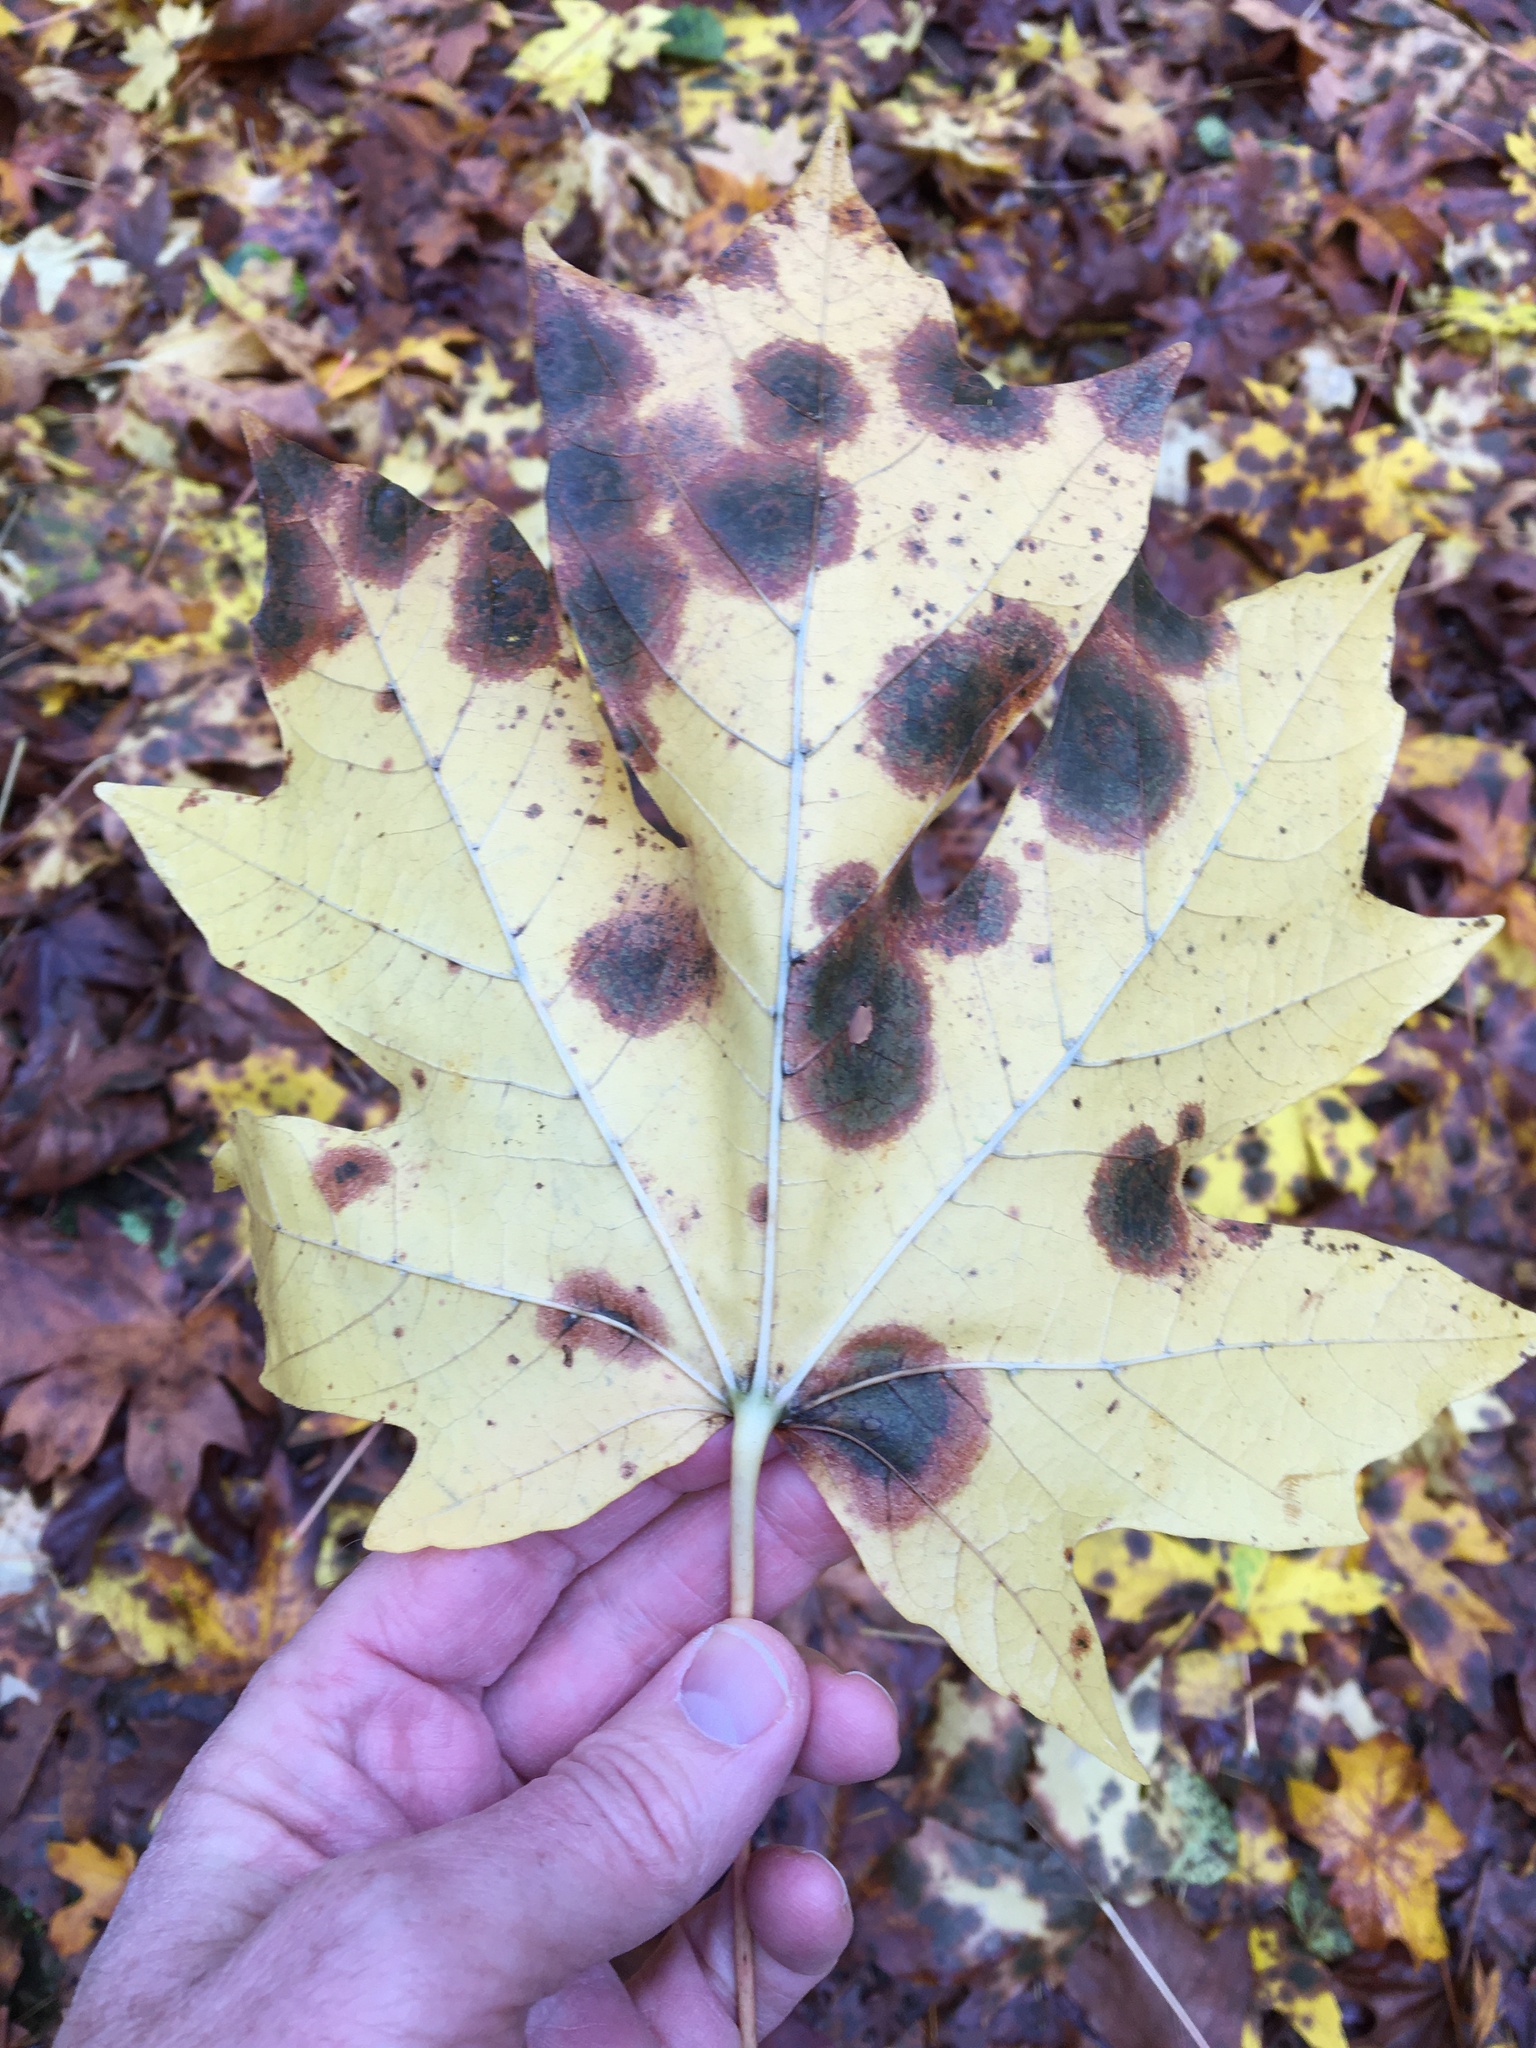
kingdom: Fungi
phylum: Ascomycota
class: Leotiomycetes
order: Rhytismatales
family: Rhytismataceae
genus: Rhytisma
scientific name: Rhytisma punctatum
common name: Speckled tar spot
